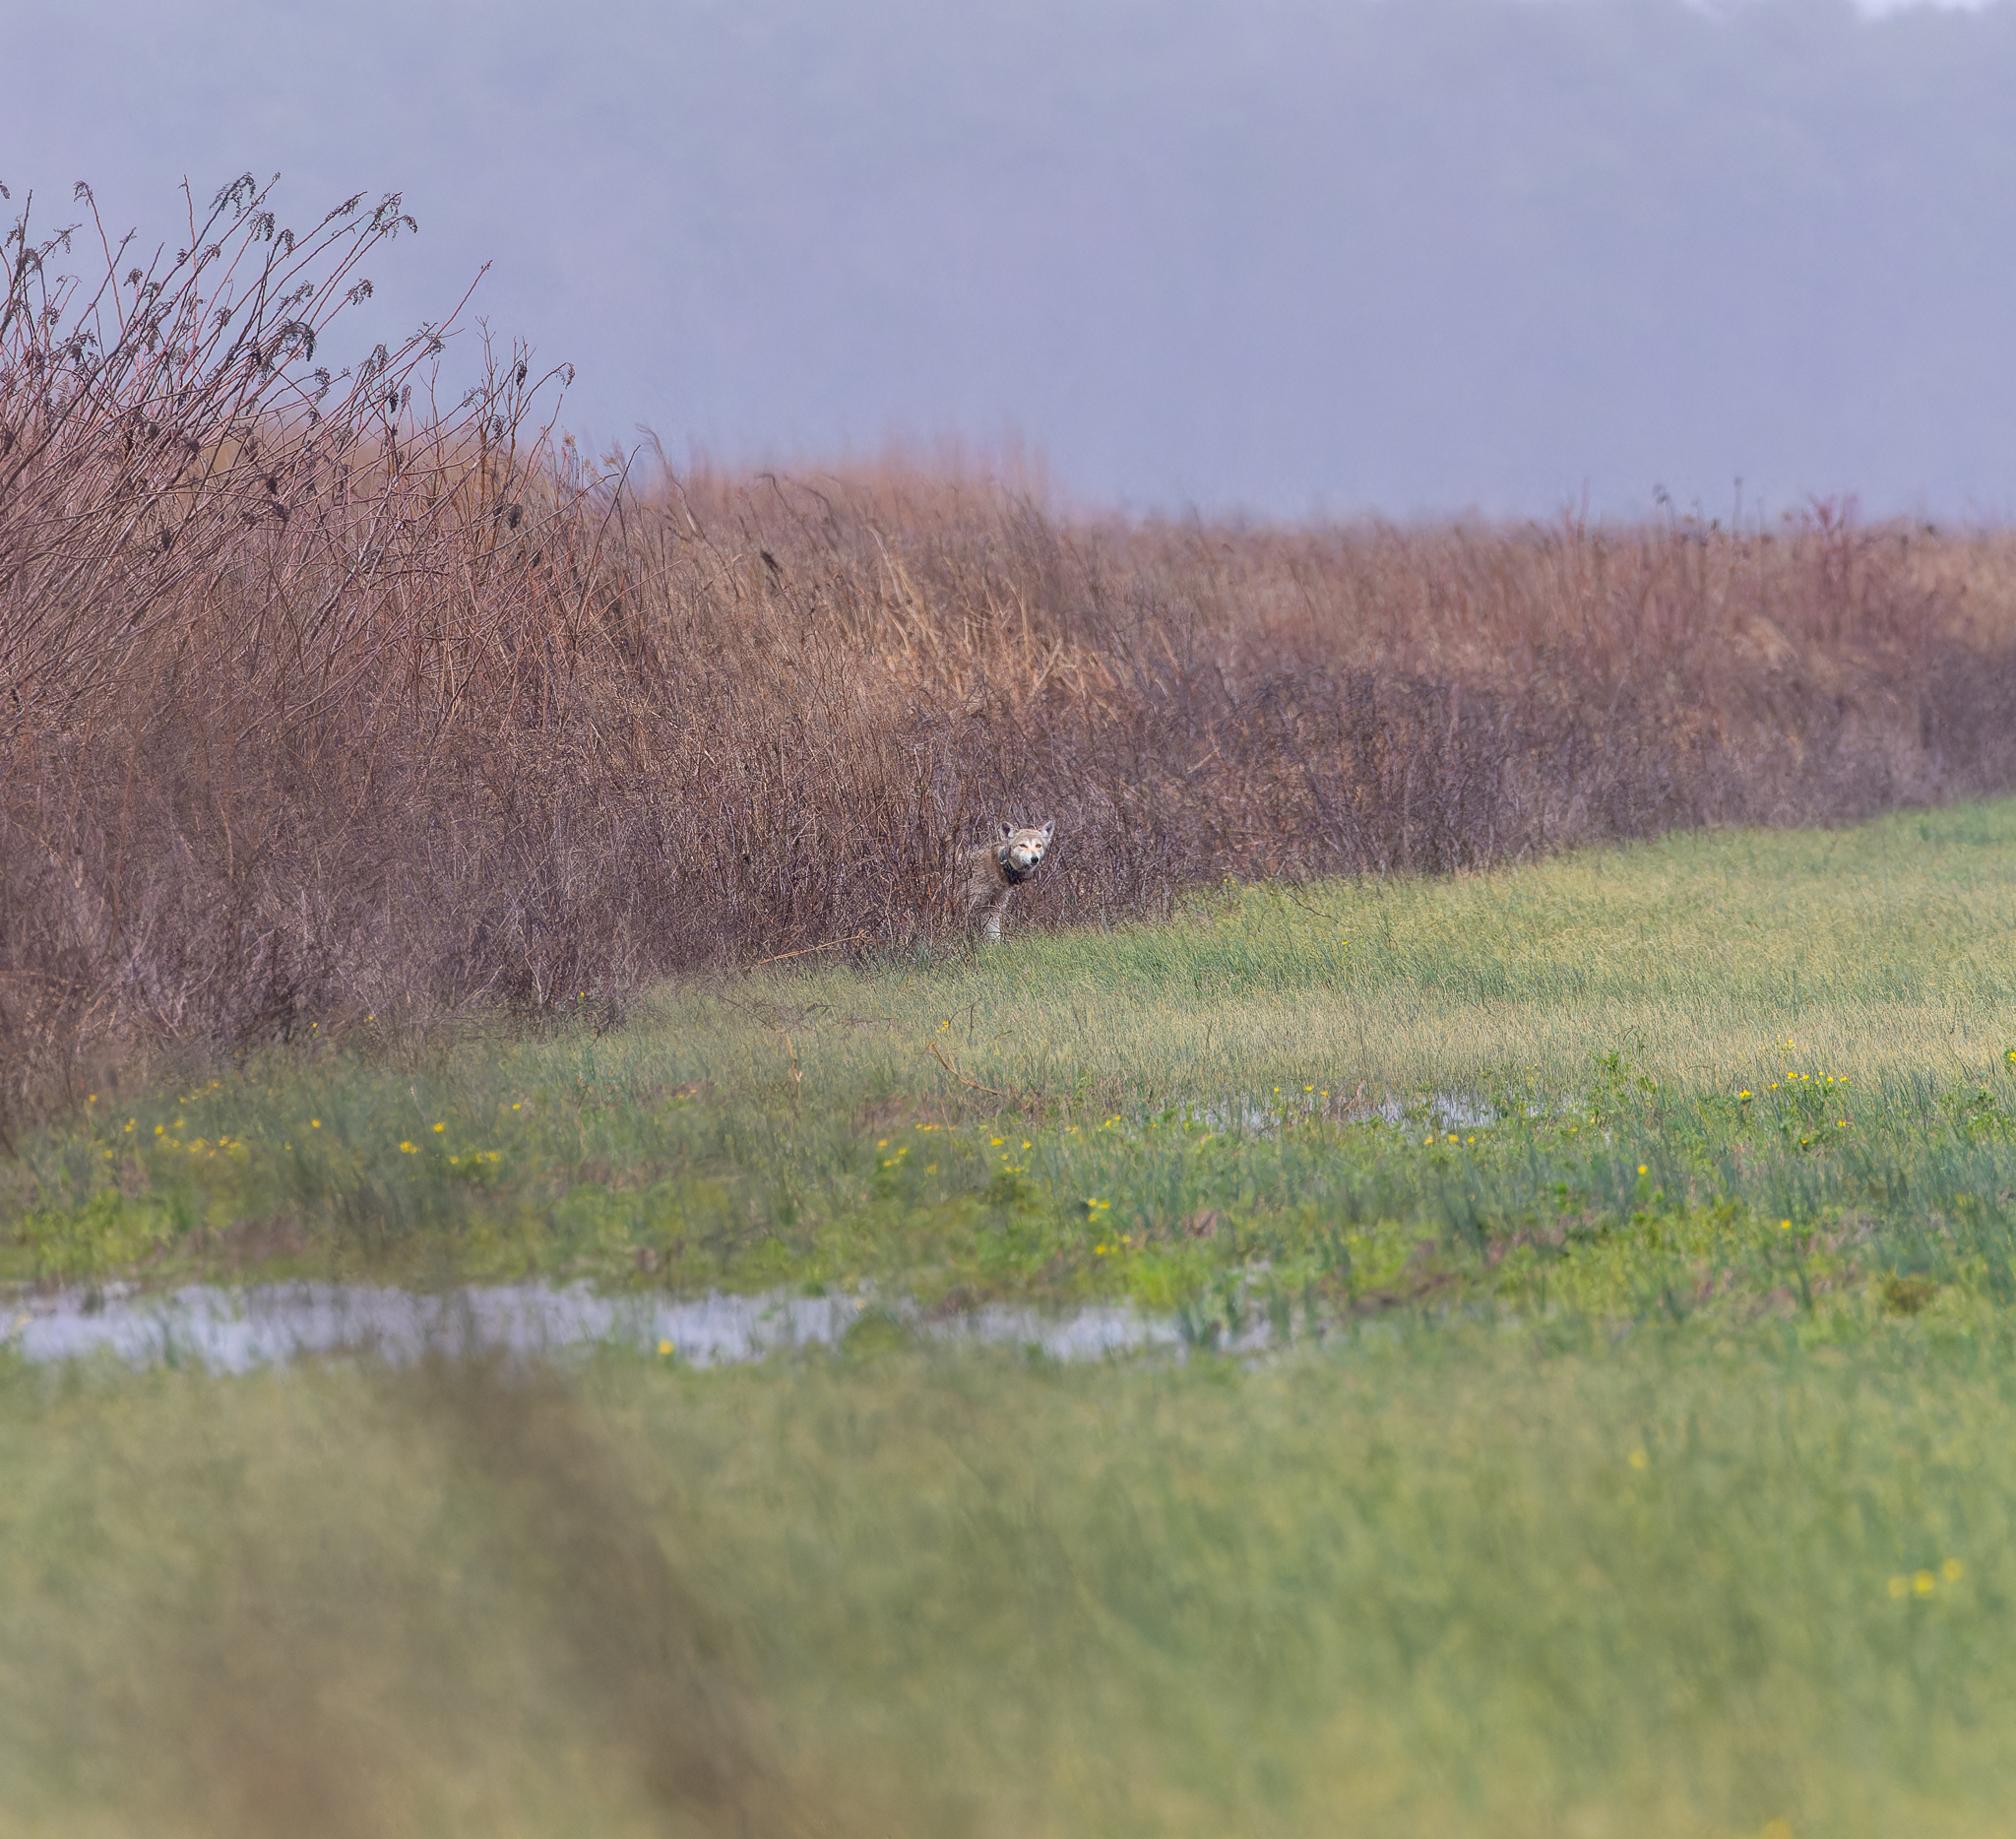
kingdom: Animalia
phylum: Chordata
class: Mammalia
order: Carnivora
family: Canidae
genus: Canis
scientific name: Canis latrans
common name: Coyote
